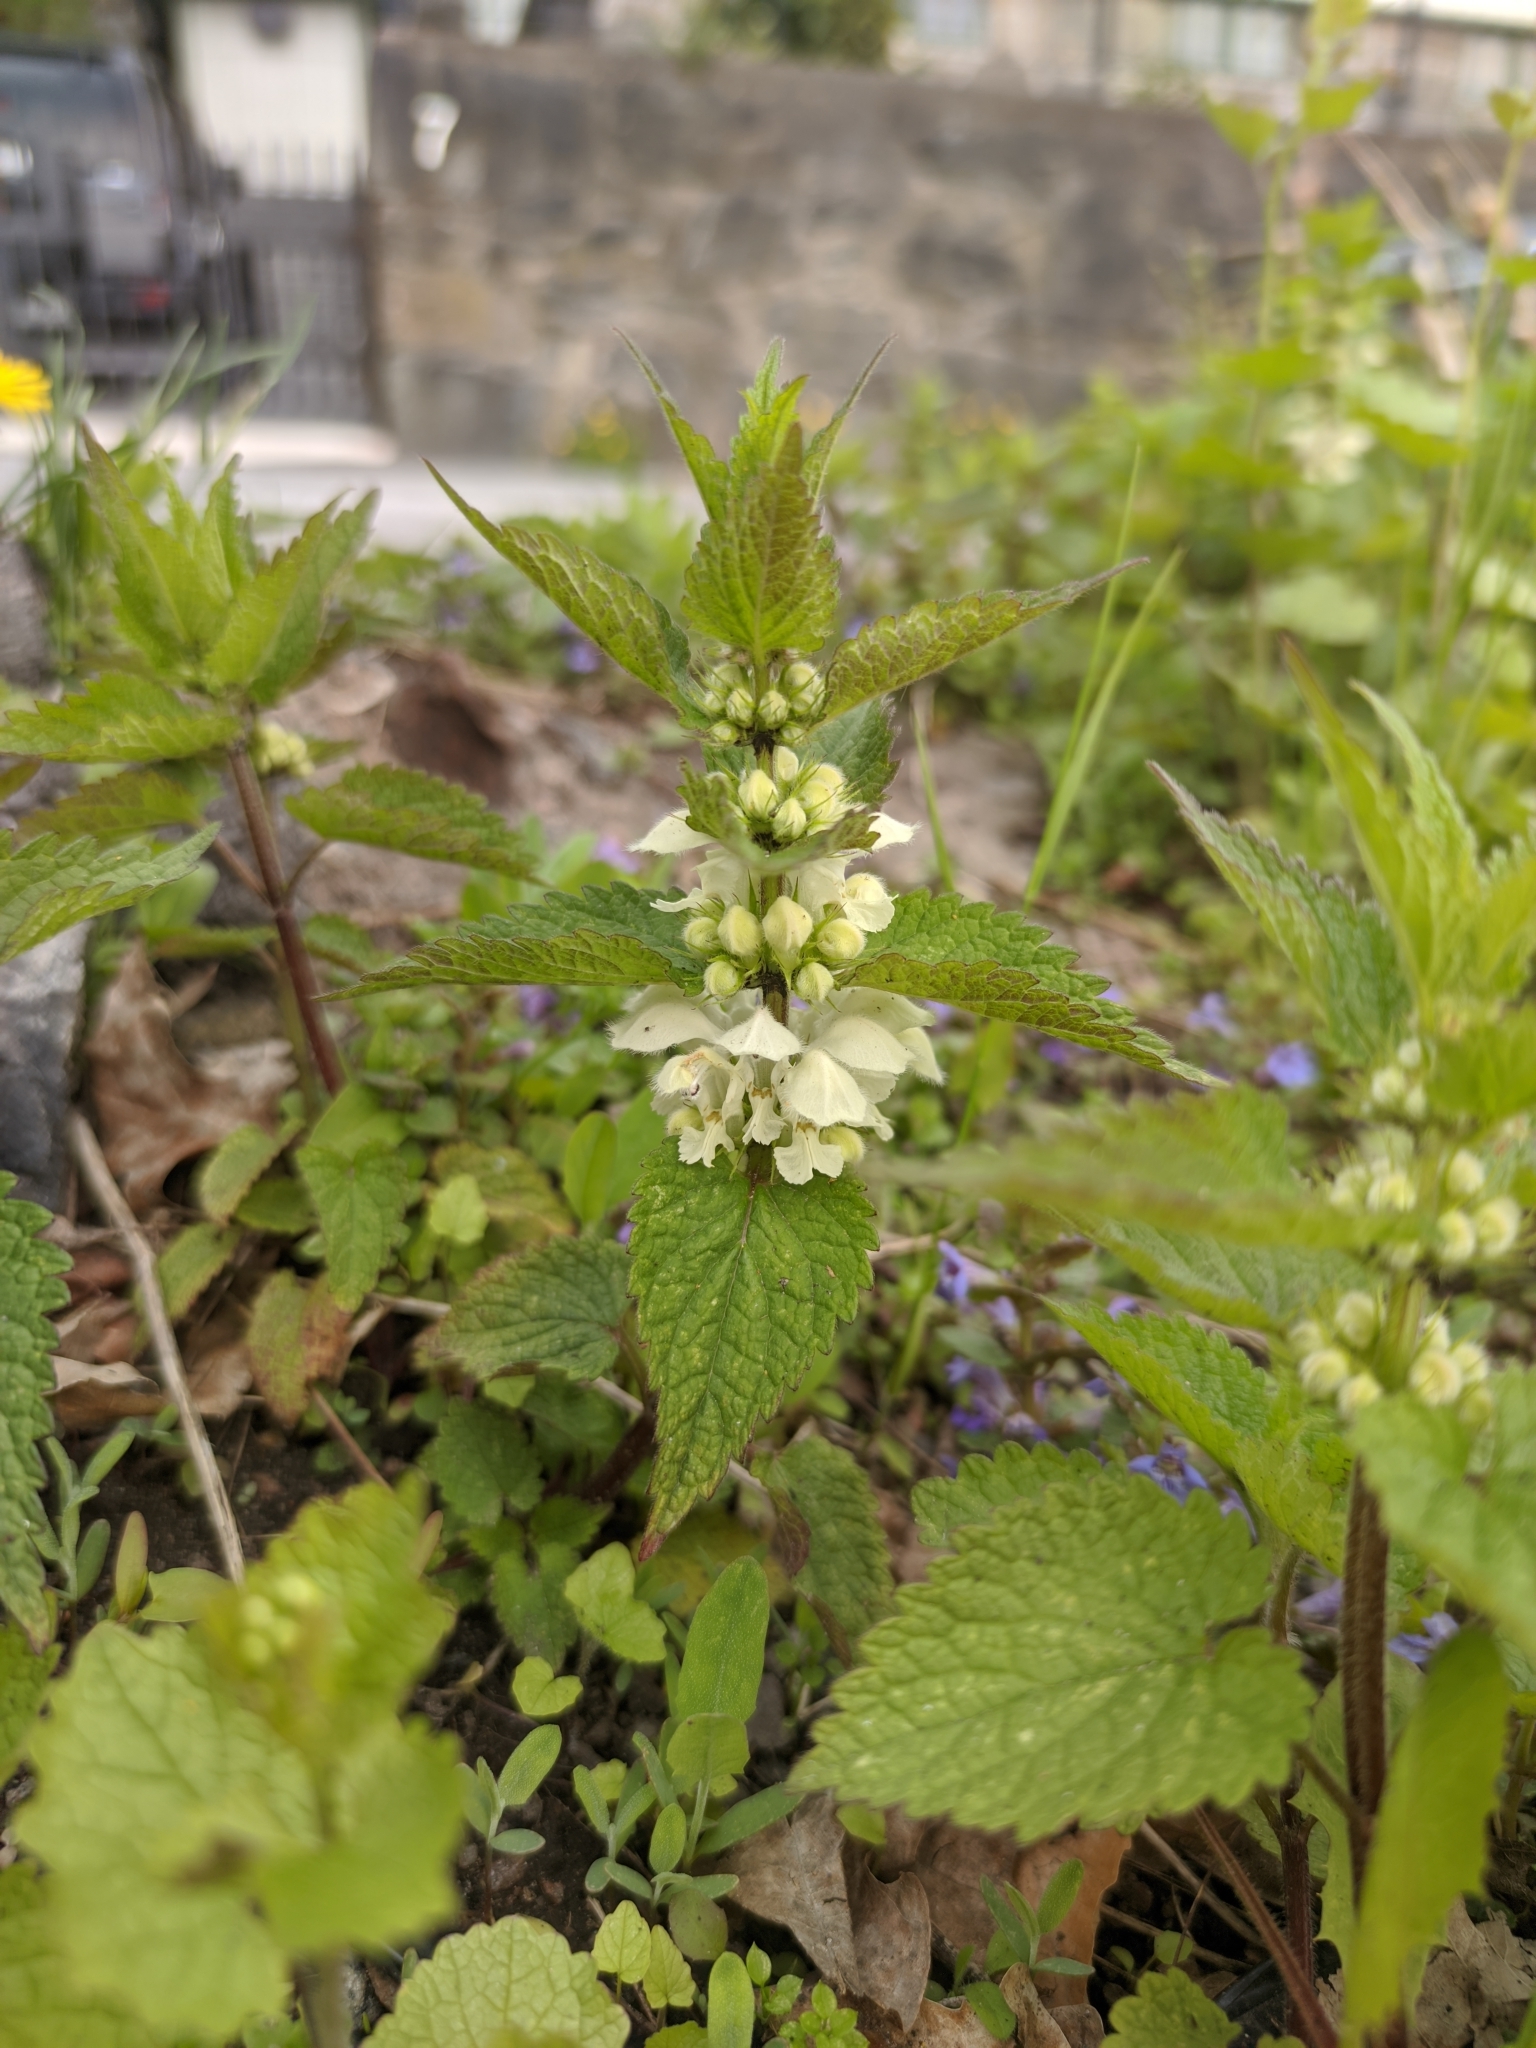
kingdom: Plantae
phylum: Tracheophyta
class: Magnoliopsida
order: Lamiales
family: Lamiaceae
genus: Lamium
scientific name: Lamium album
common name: White dead-nettle
